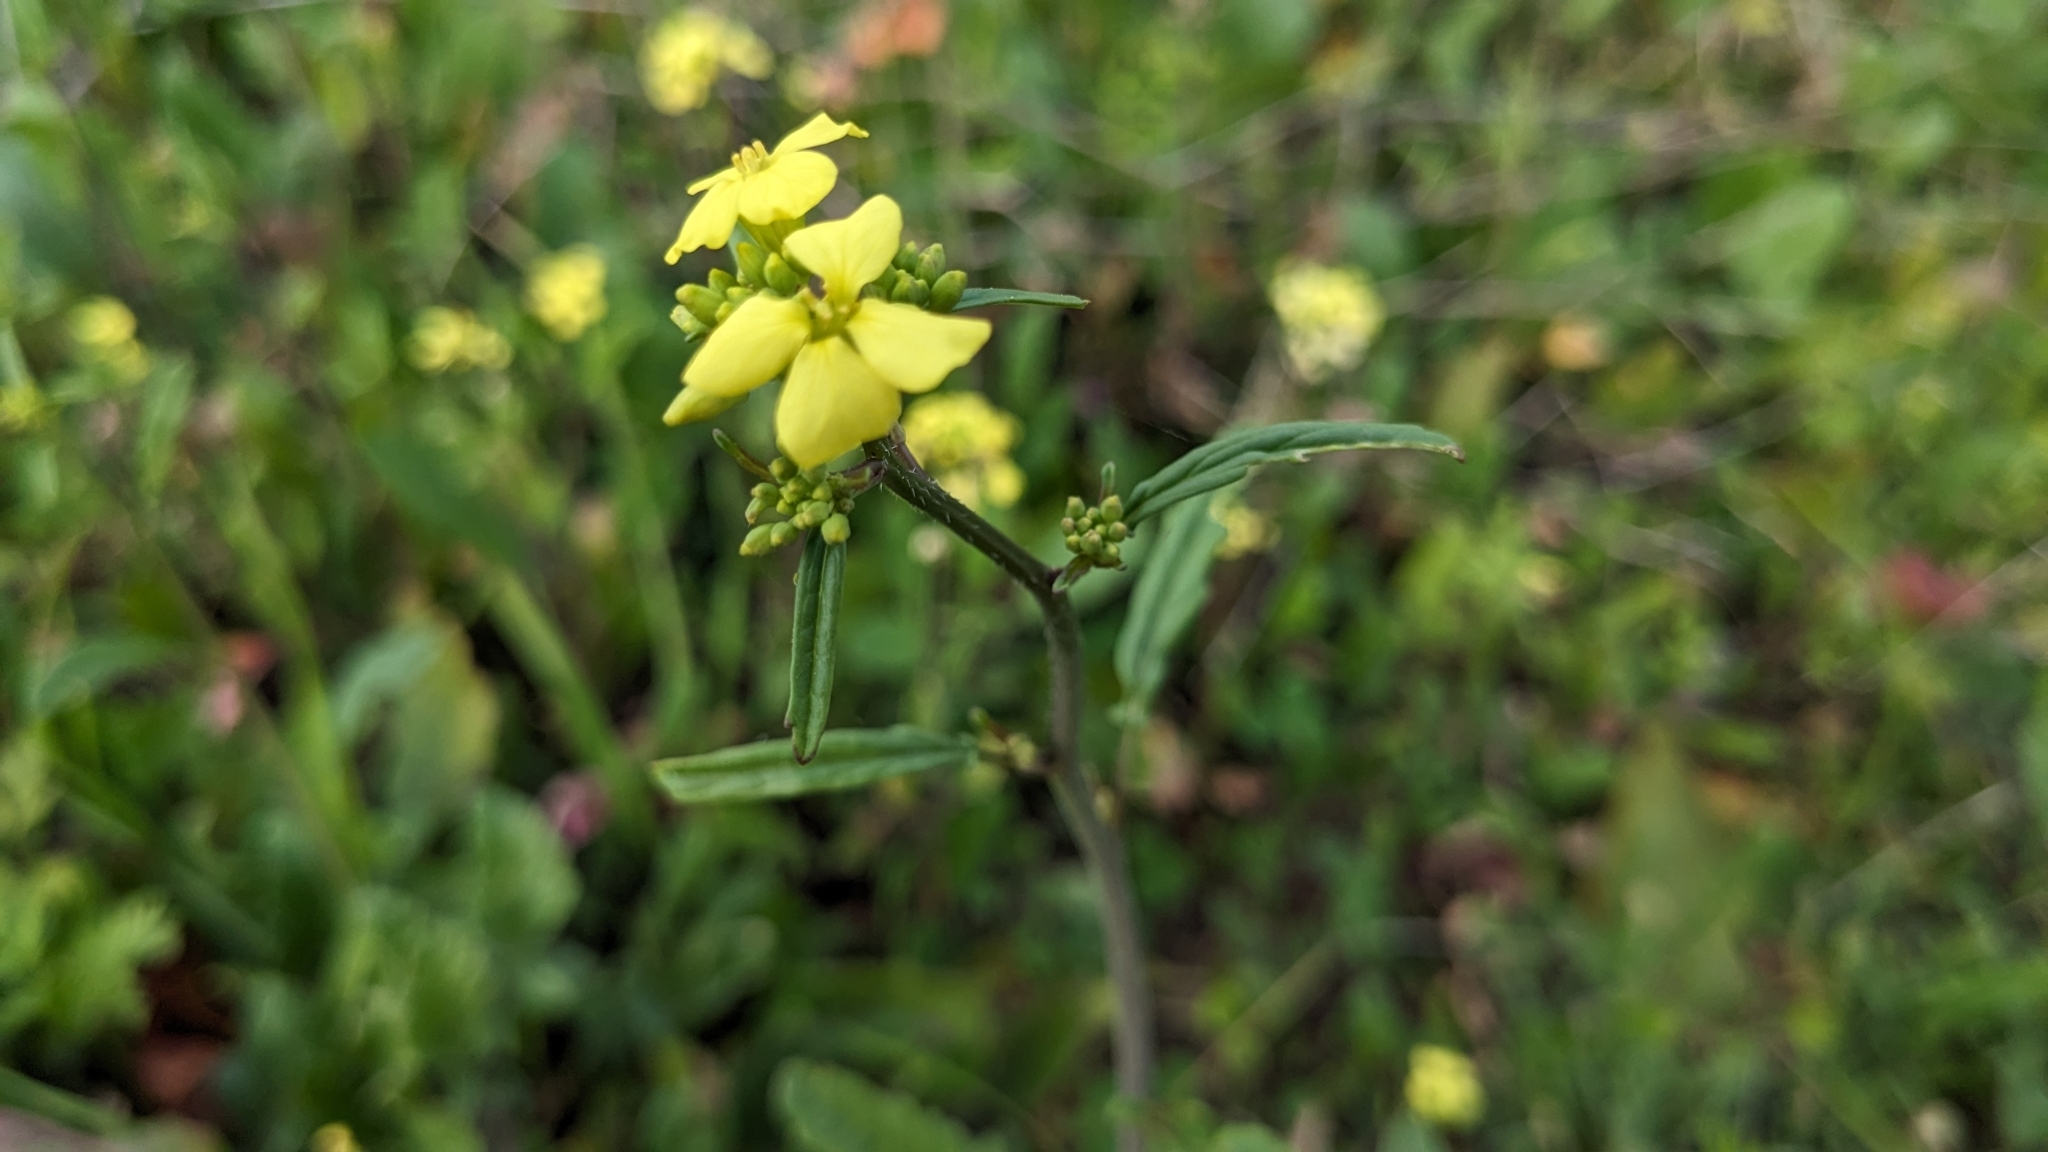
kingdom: Plantae
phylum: Tracheophyta
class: Magnoliopsida
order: Brassicales
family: Brassicaceae
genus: Rapistrum
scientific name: Rapistrum rugosum
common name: Annual bastardcabbage
